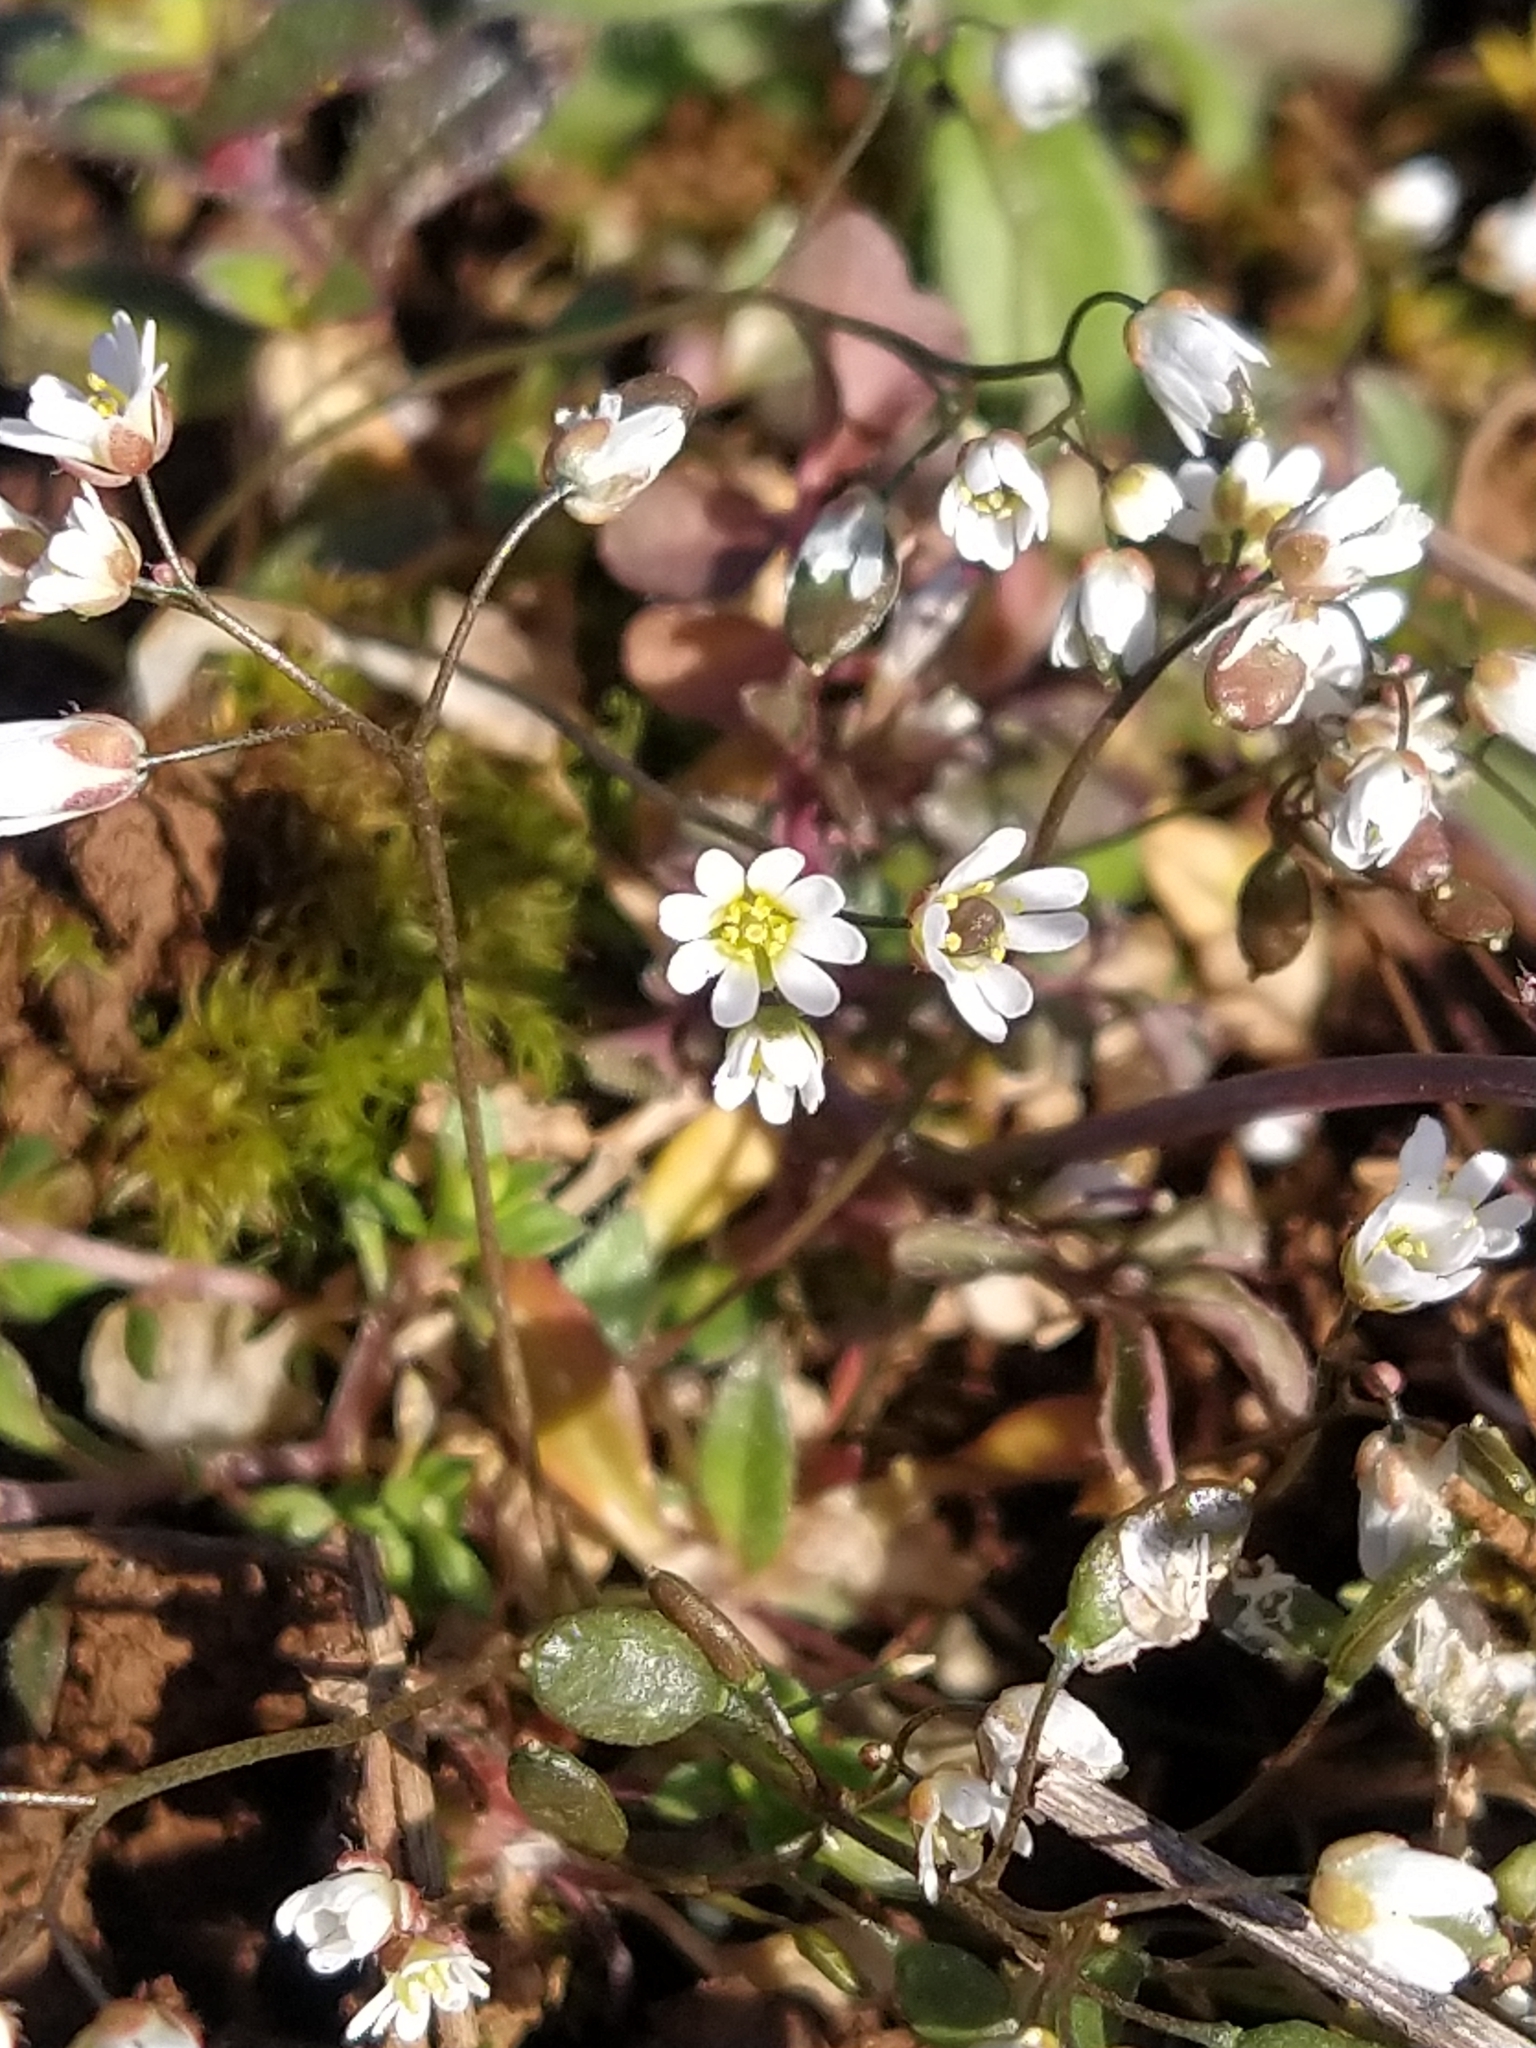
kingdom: Plantae
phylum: Tracheophyta
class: Magnoliopsida
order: Brassicales
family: Brassicaceae
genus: Draba
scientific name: Draba verna
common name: Spring draba
